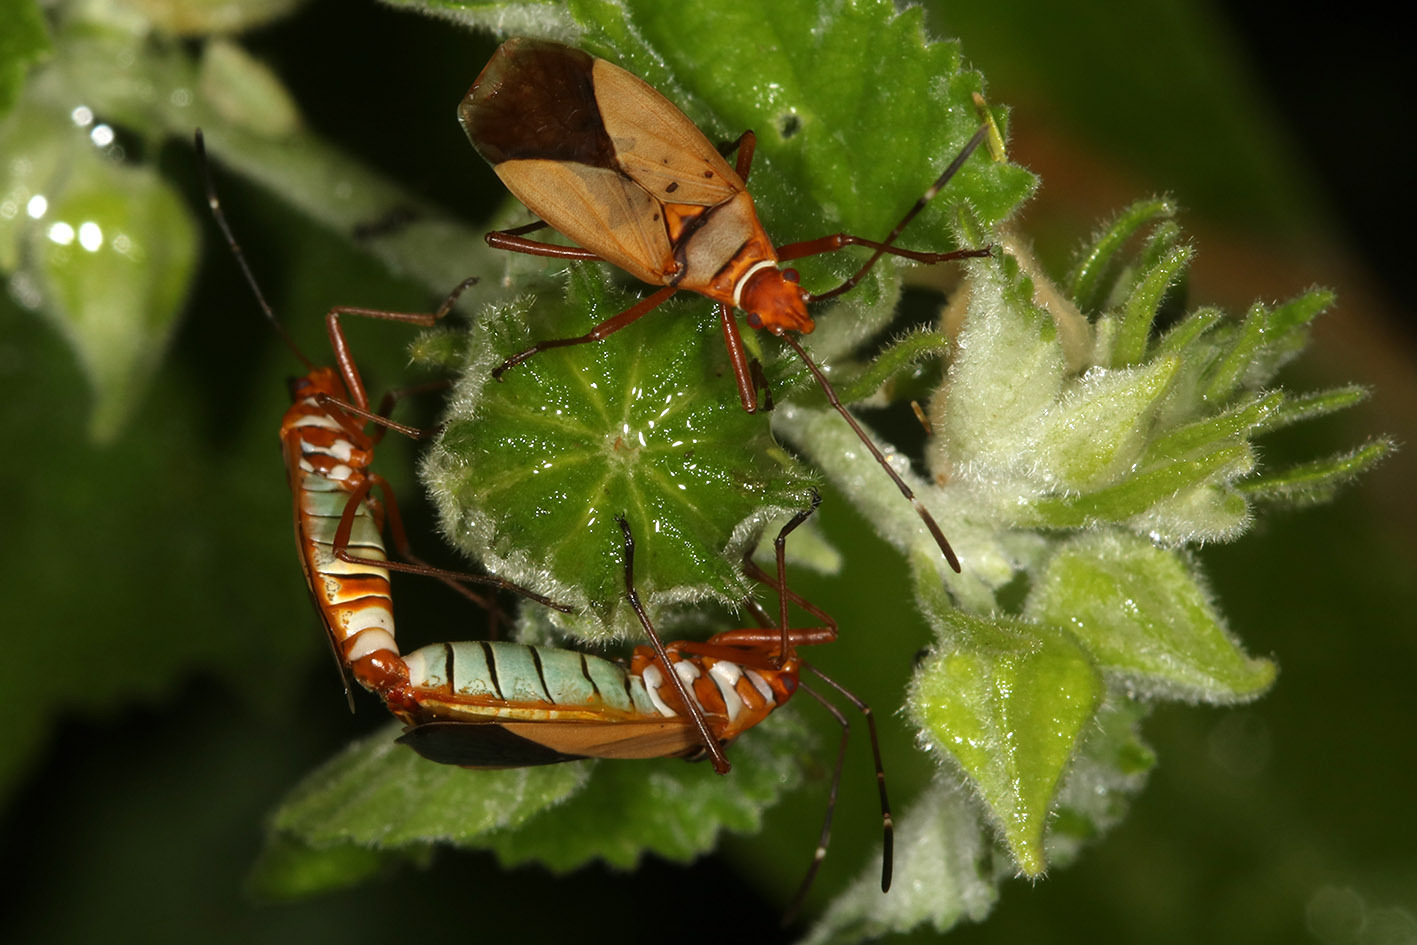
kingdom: Animalia
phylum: Arthropoda
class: Insecta
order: Hemiptera
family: Pyrrhocoridae
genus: Dysdercus
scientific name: Dysdercus chaquensis
